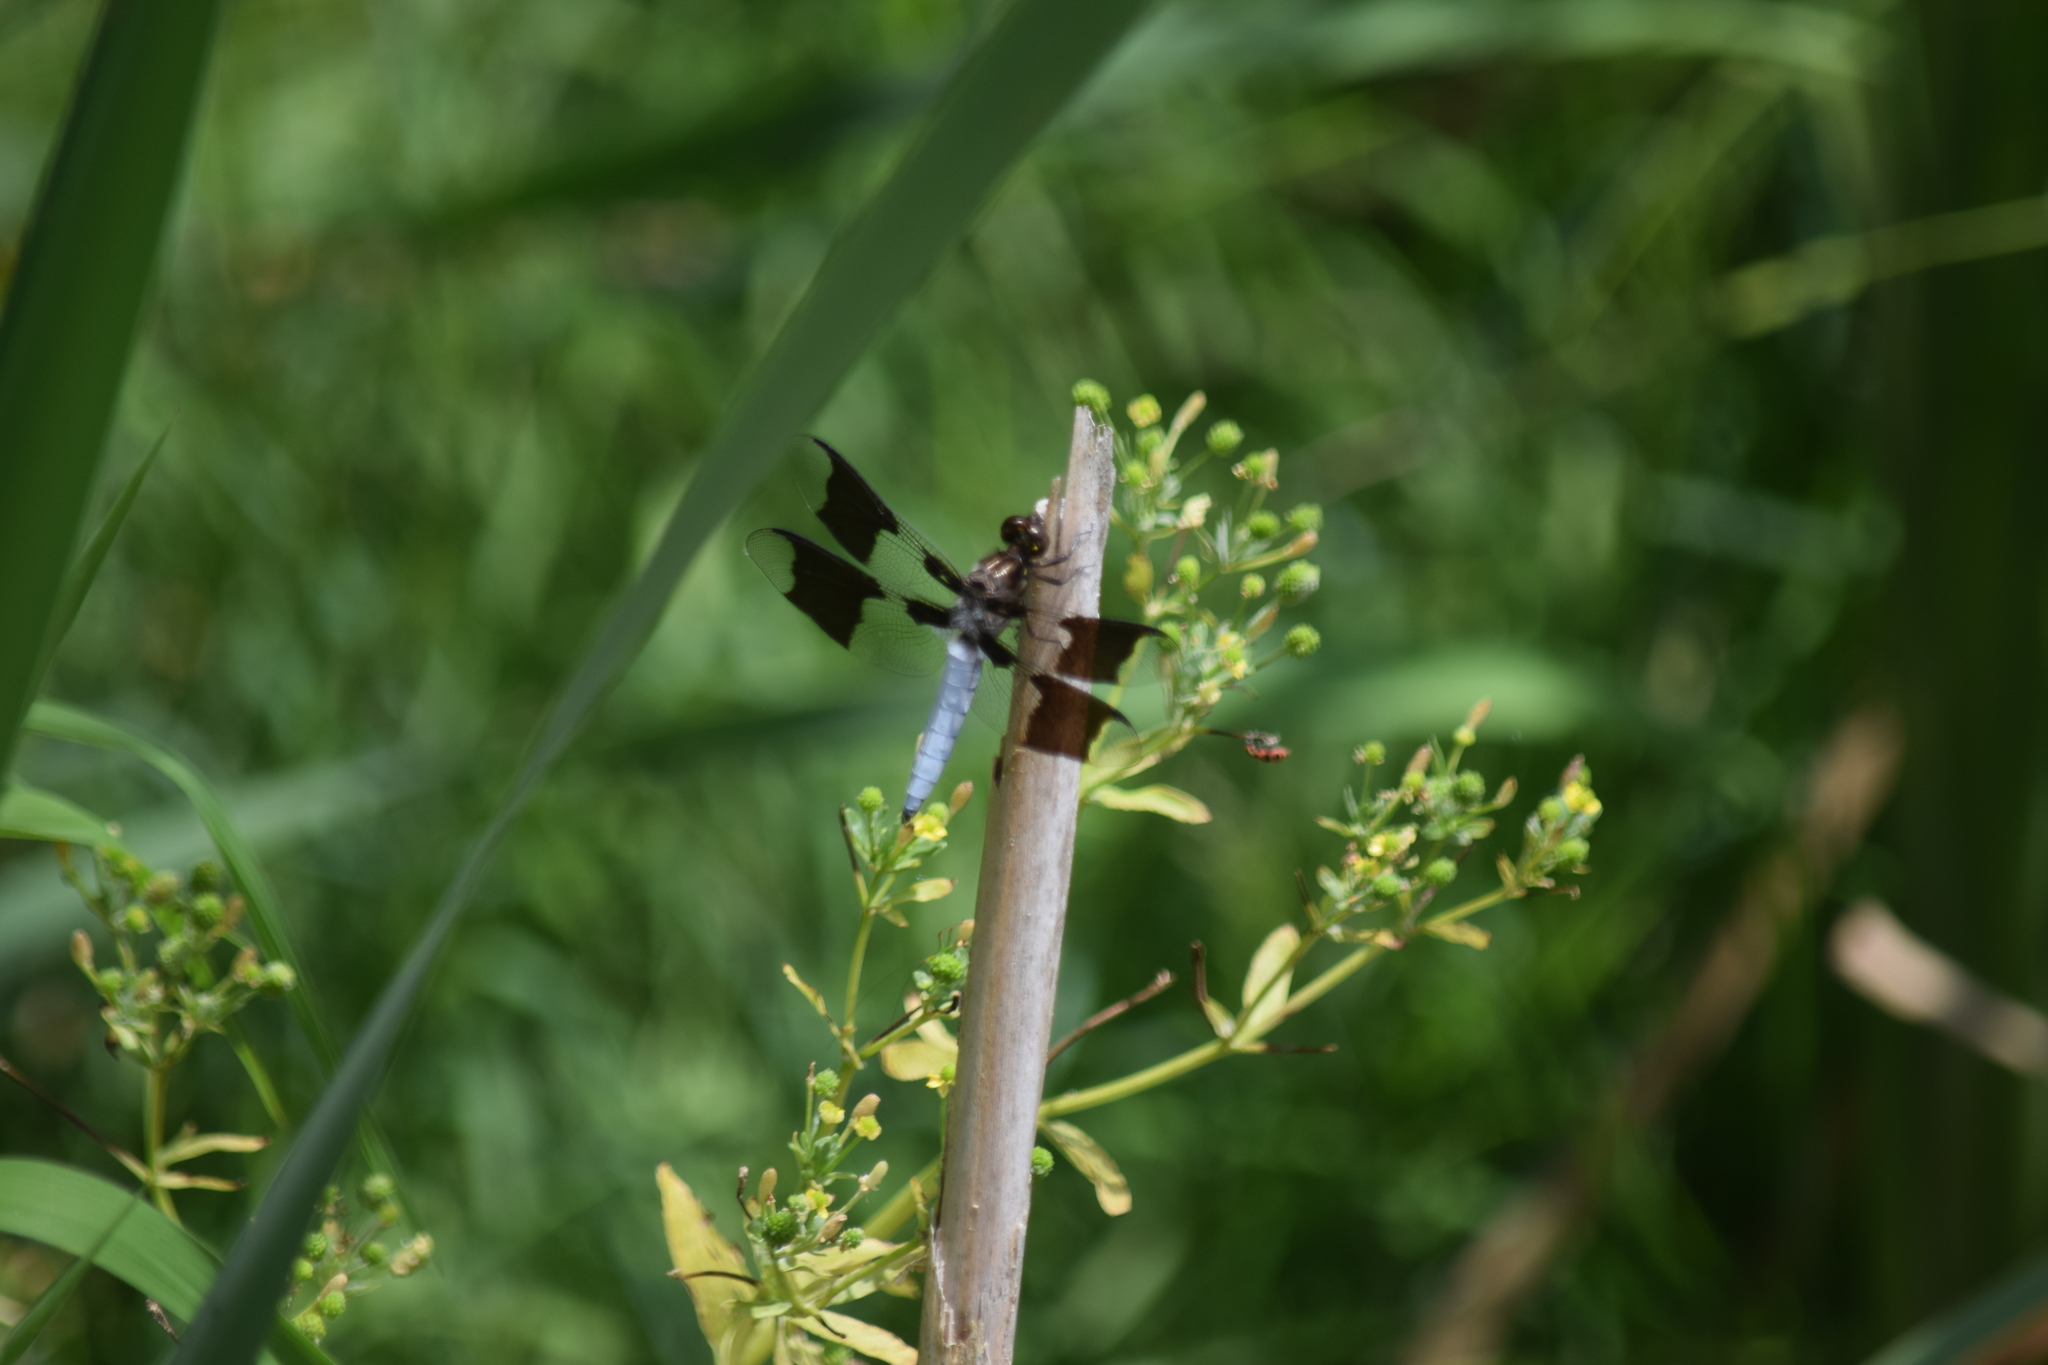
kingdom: Animalia
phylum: Arthropoda
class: Insecta
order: Odonata
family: Libellulidae
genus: Plathemis
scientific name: Plathemis lydia
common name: Common whitetail
